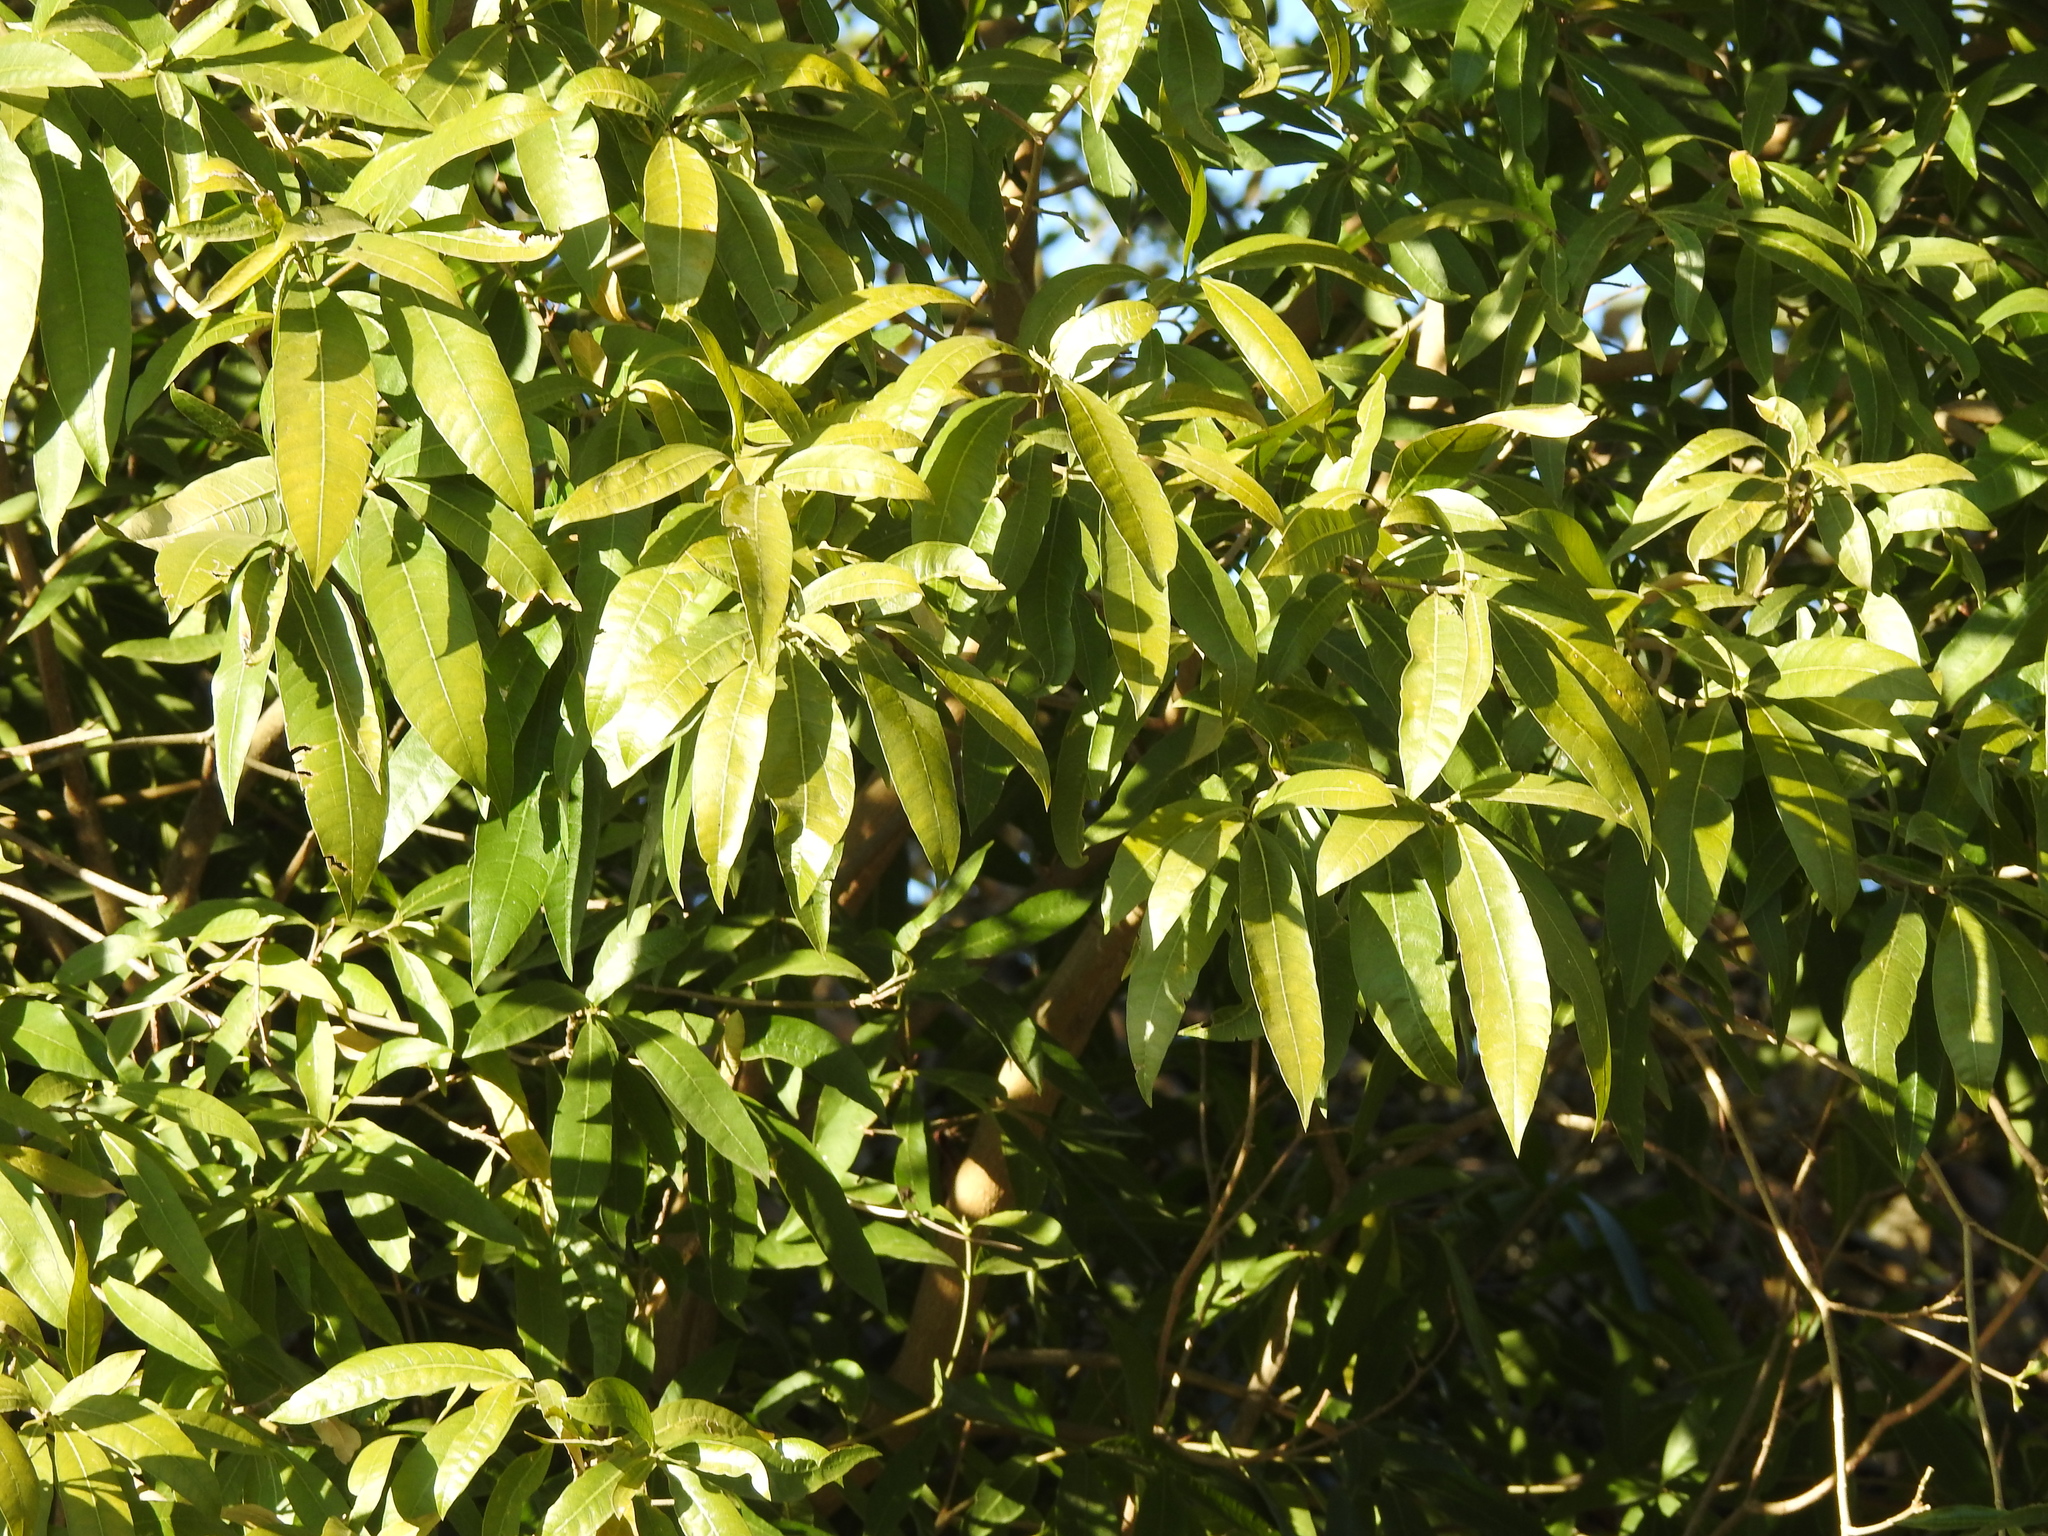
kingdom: Plantae
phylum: Tracheophyta
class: Magnoliopsida
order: Gentianales
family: Apocynaceae
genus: Tabernaemontana
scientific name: Tabernaemontana catharinensis
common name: Pinwheel-flower
